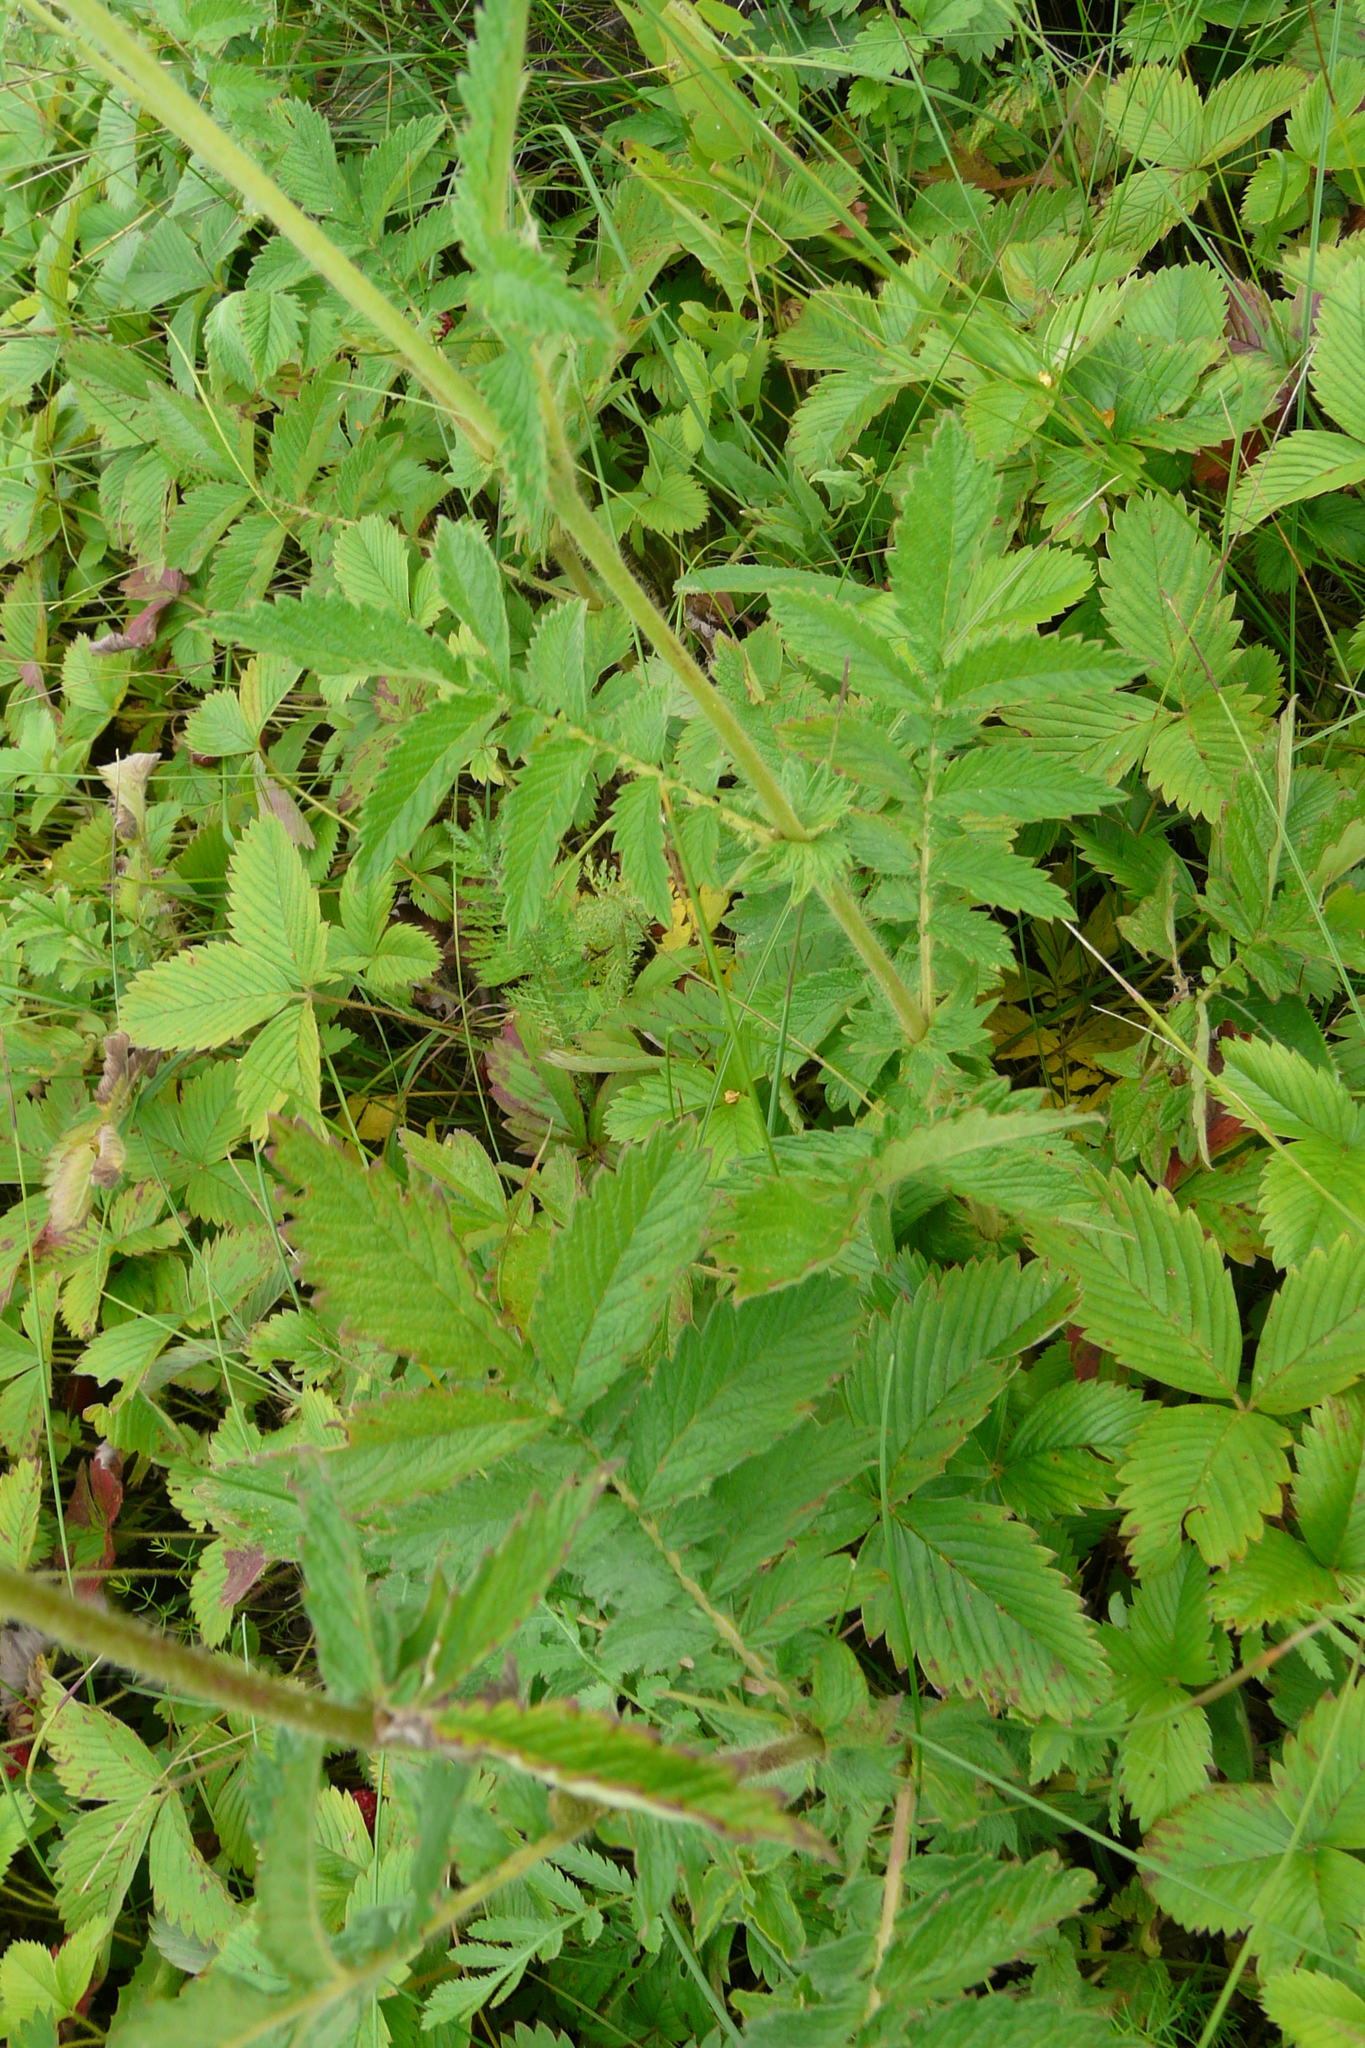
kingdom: Plantae
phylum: Tracheophyta
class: Magnoliopsida
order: Rosales
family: Rosaceae
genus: Agrimonia
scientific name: Agrimonia eupatoria
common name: Agrimony
